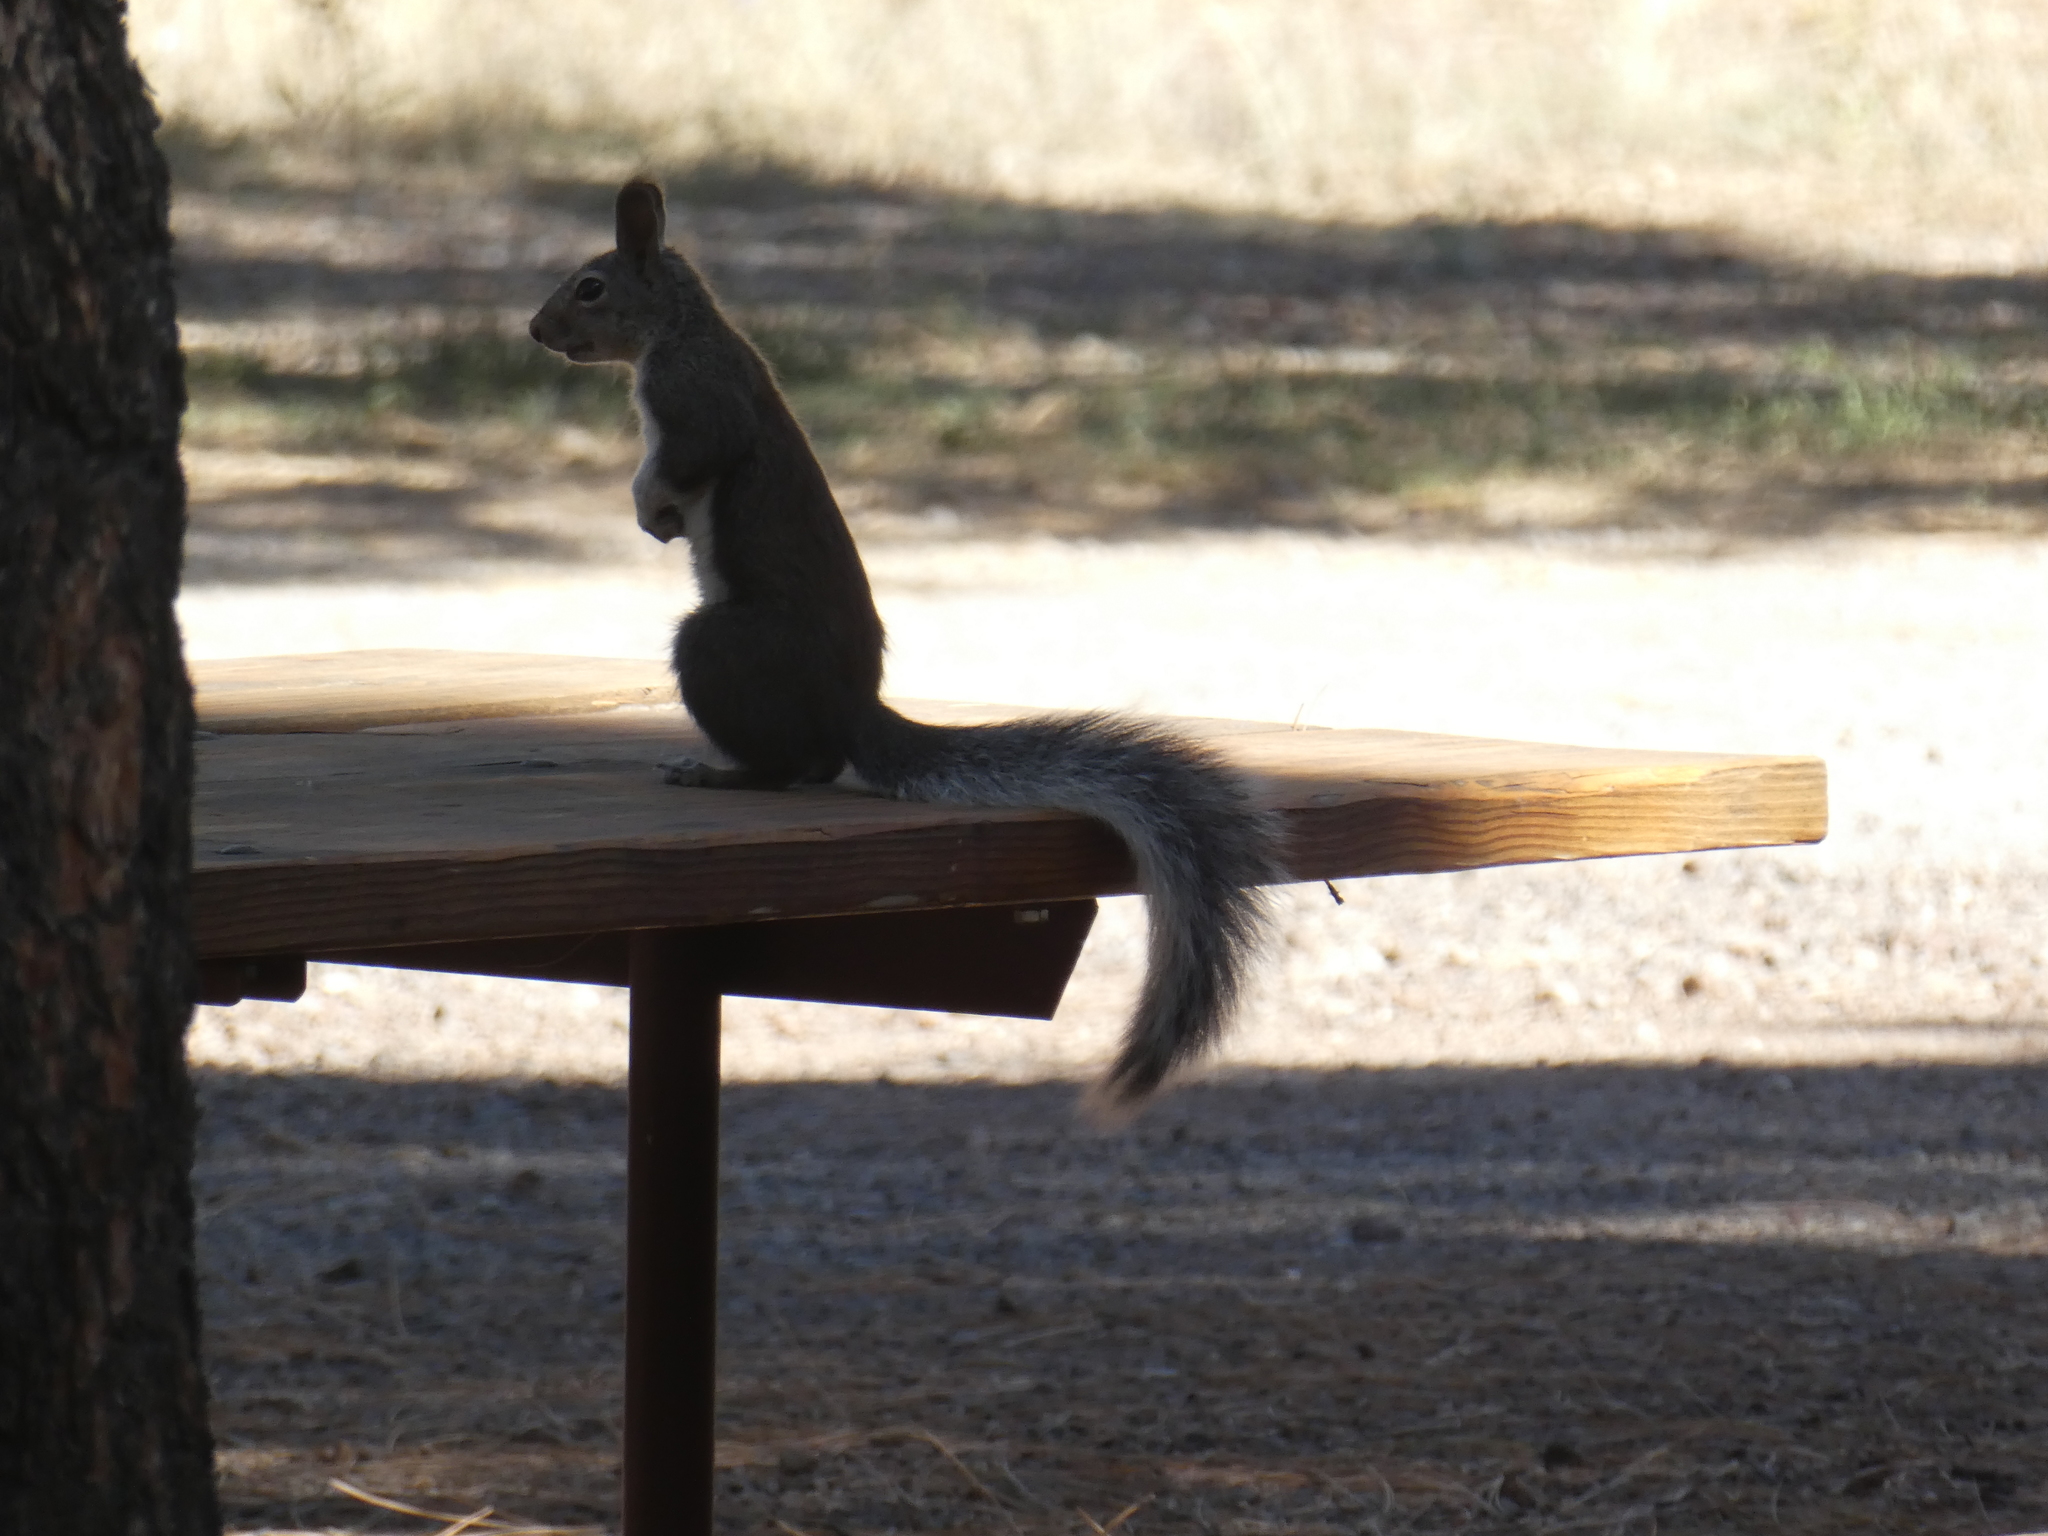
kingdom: Animalia
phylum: Chordata
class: Mammalia
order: Rodentia
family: Sciuridae
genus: Sciurus
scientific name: Sciurus aberti
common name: Abert's squirrel
